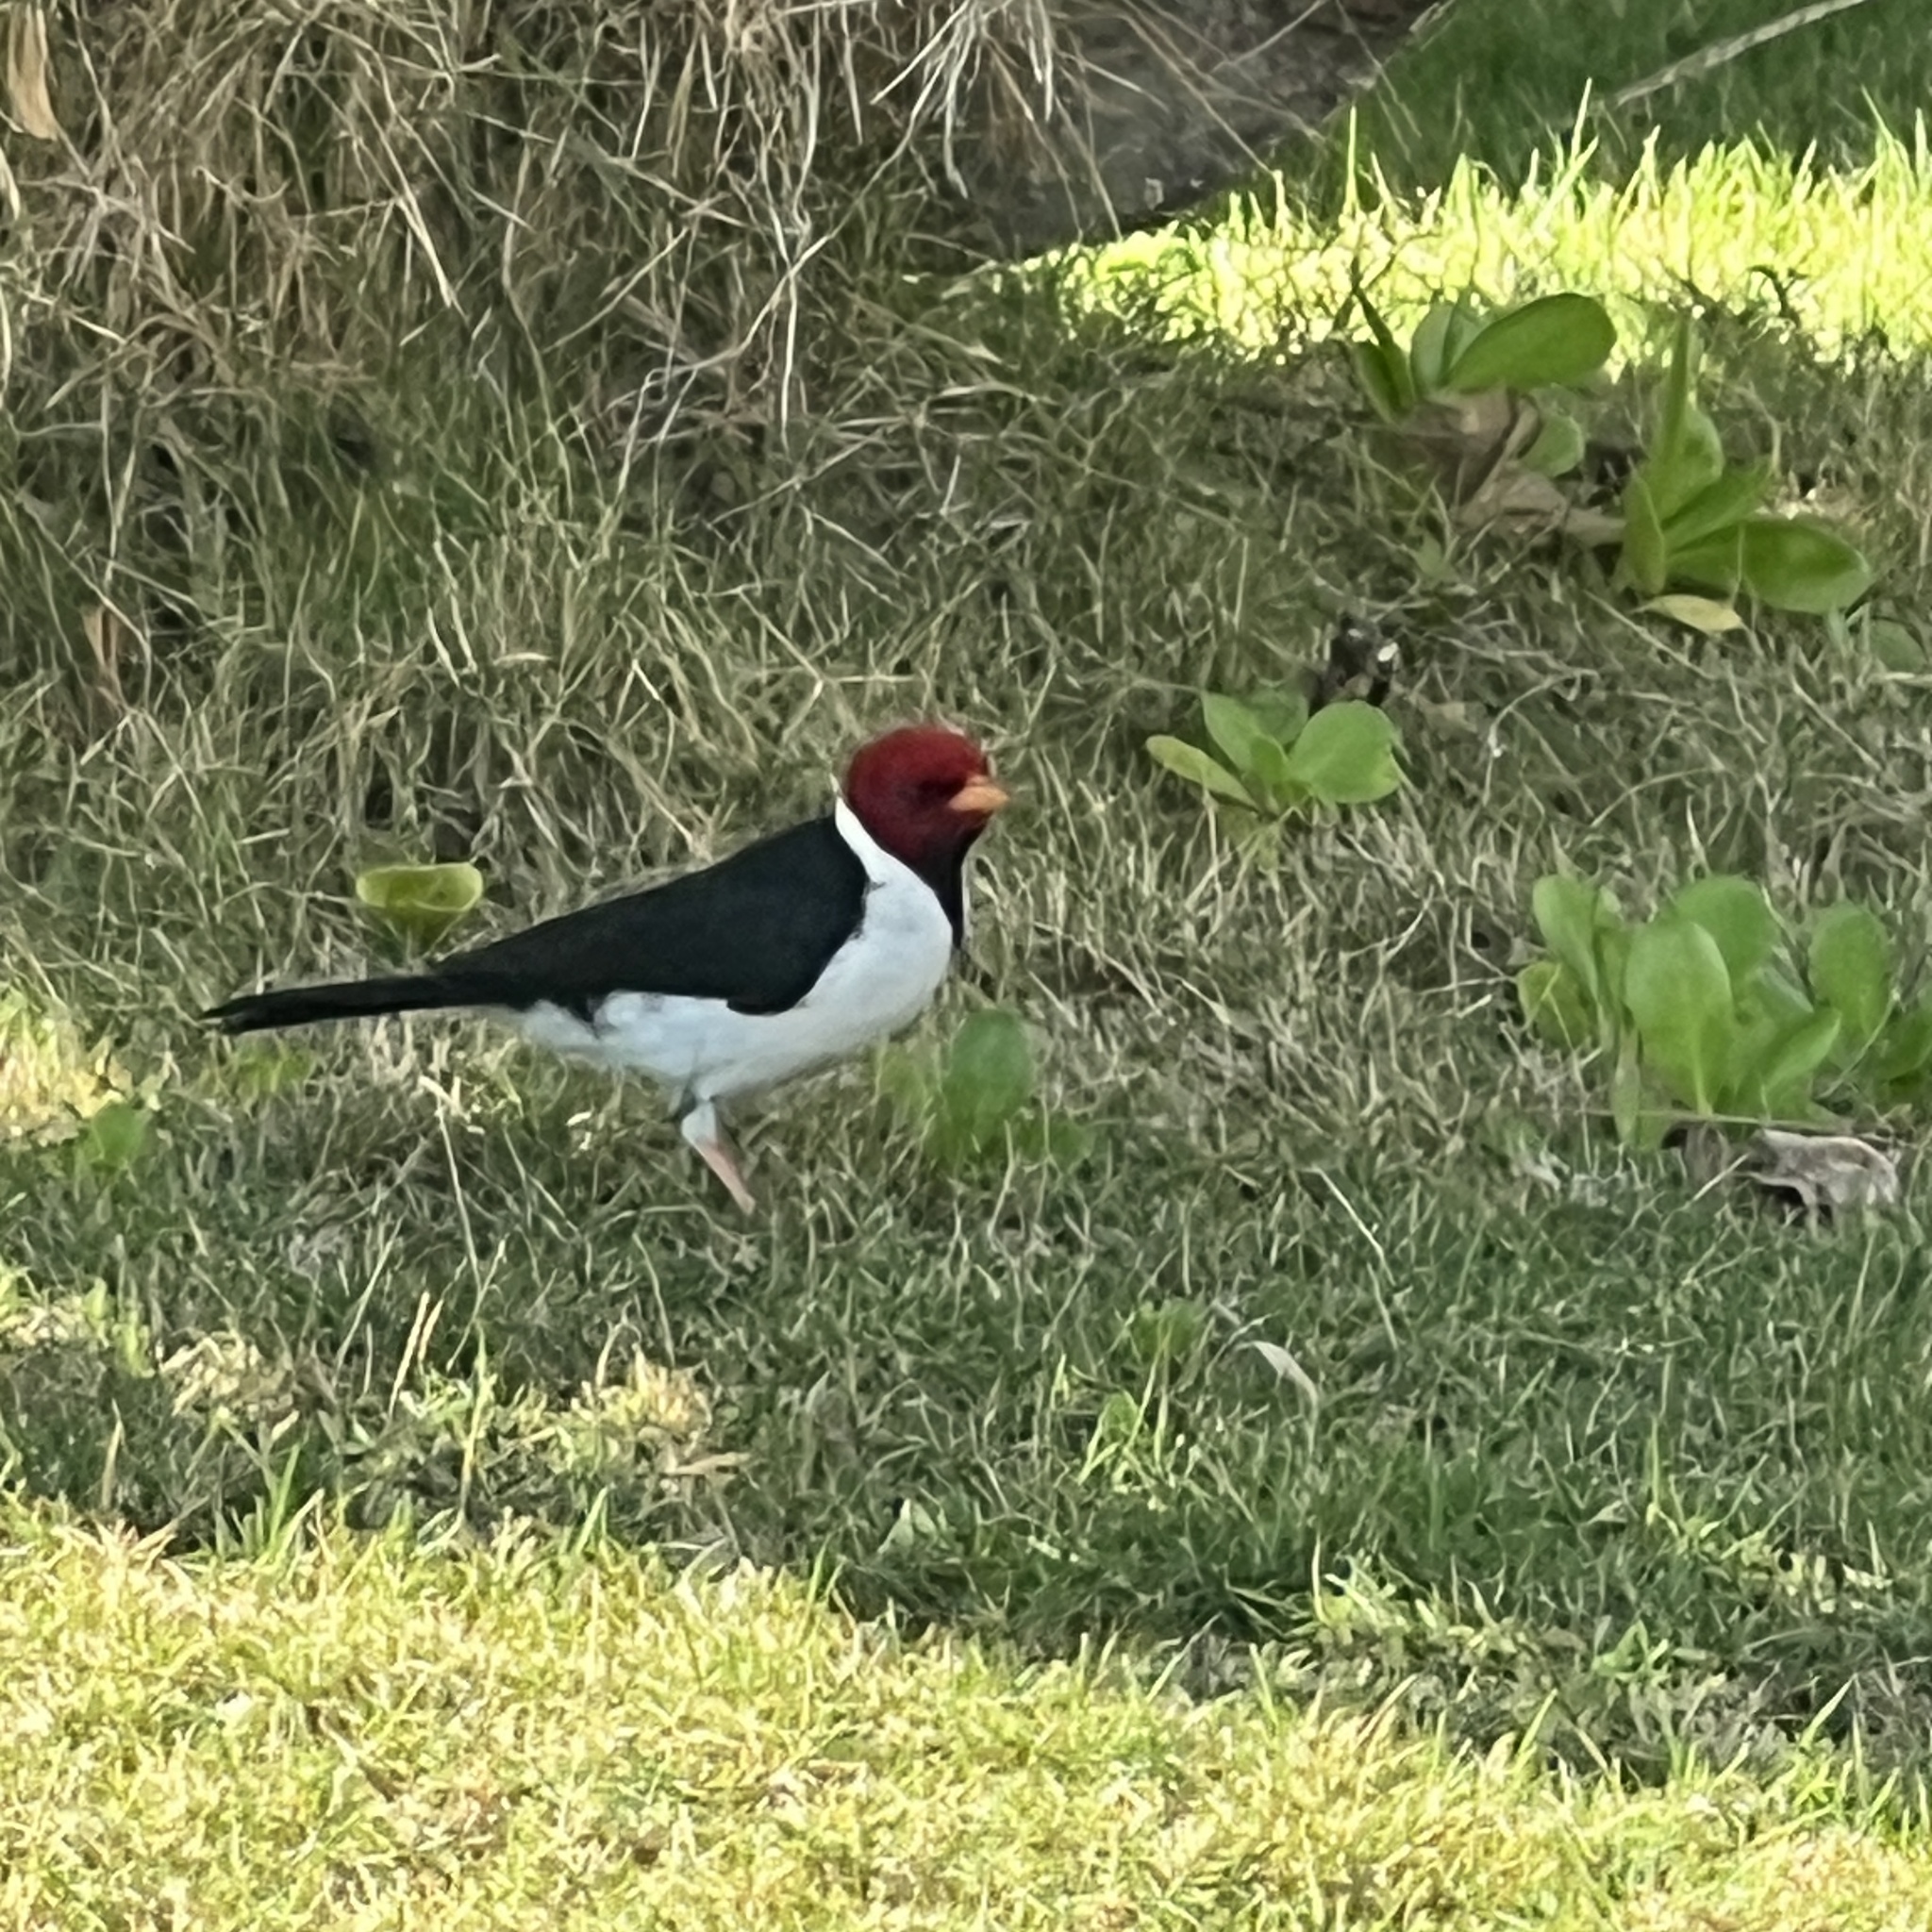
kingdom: Animalia
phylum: Chordata
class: Aves
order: Passeriformes
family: Thraupidae
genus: Paroaria
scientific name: Paroaria capitata
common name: Yellow-billed cardinal
